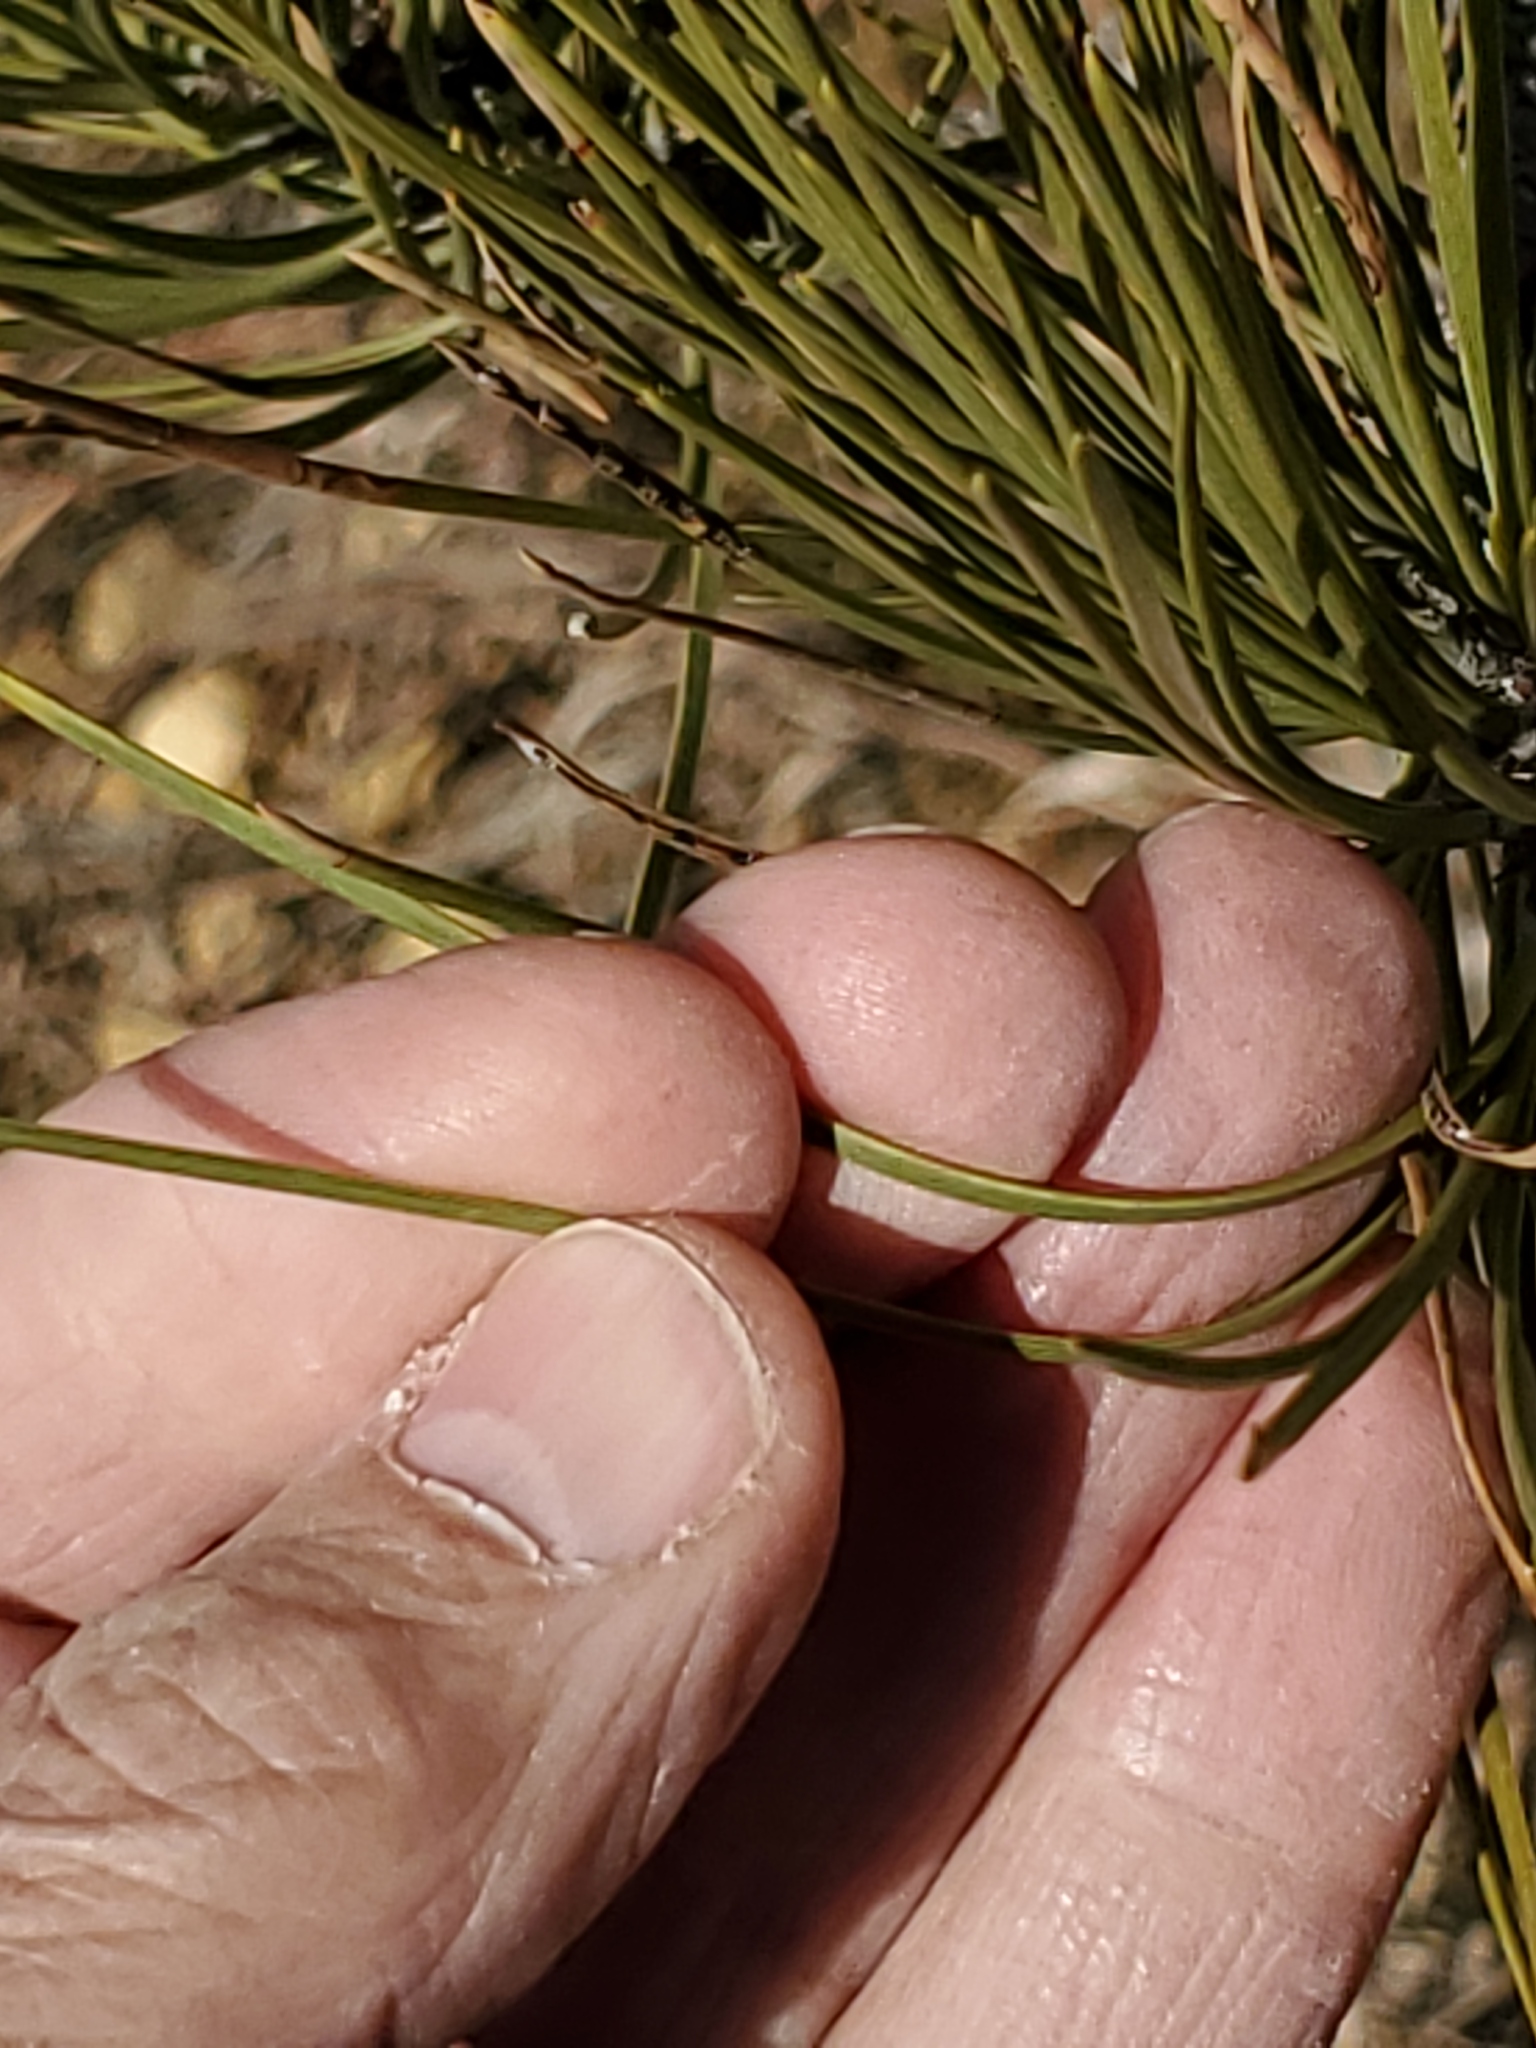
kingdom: Plantae
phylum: Tracheophyta
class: Pinopsida
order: Pinales
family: Pinaceae
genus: Pinus
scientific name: Pinus ponderosa
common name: Western yellow-pine
